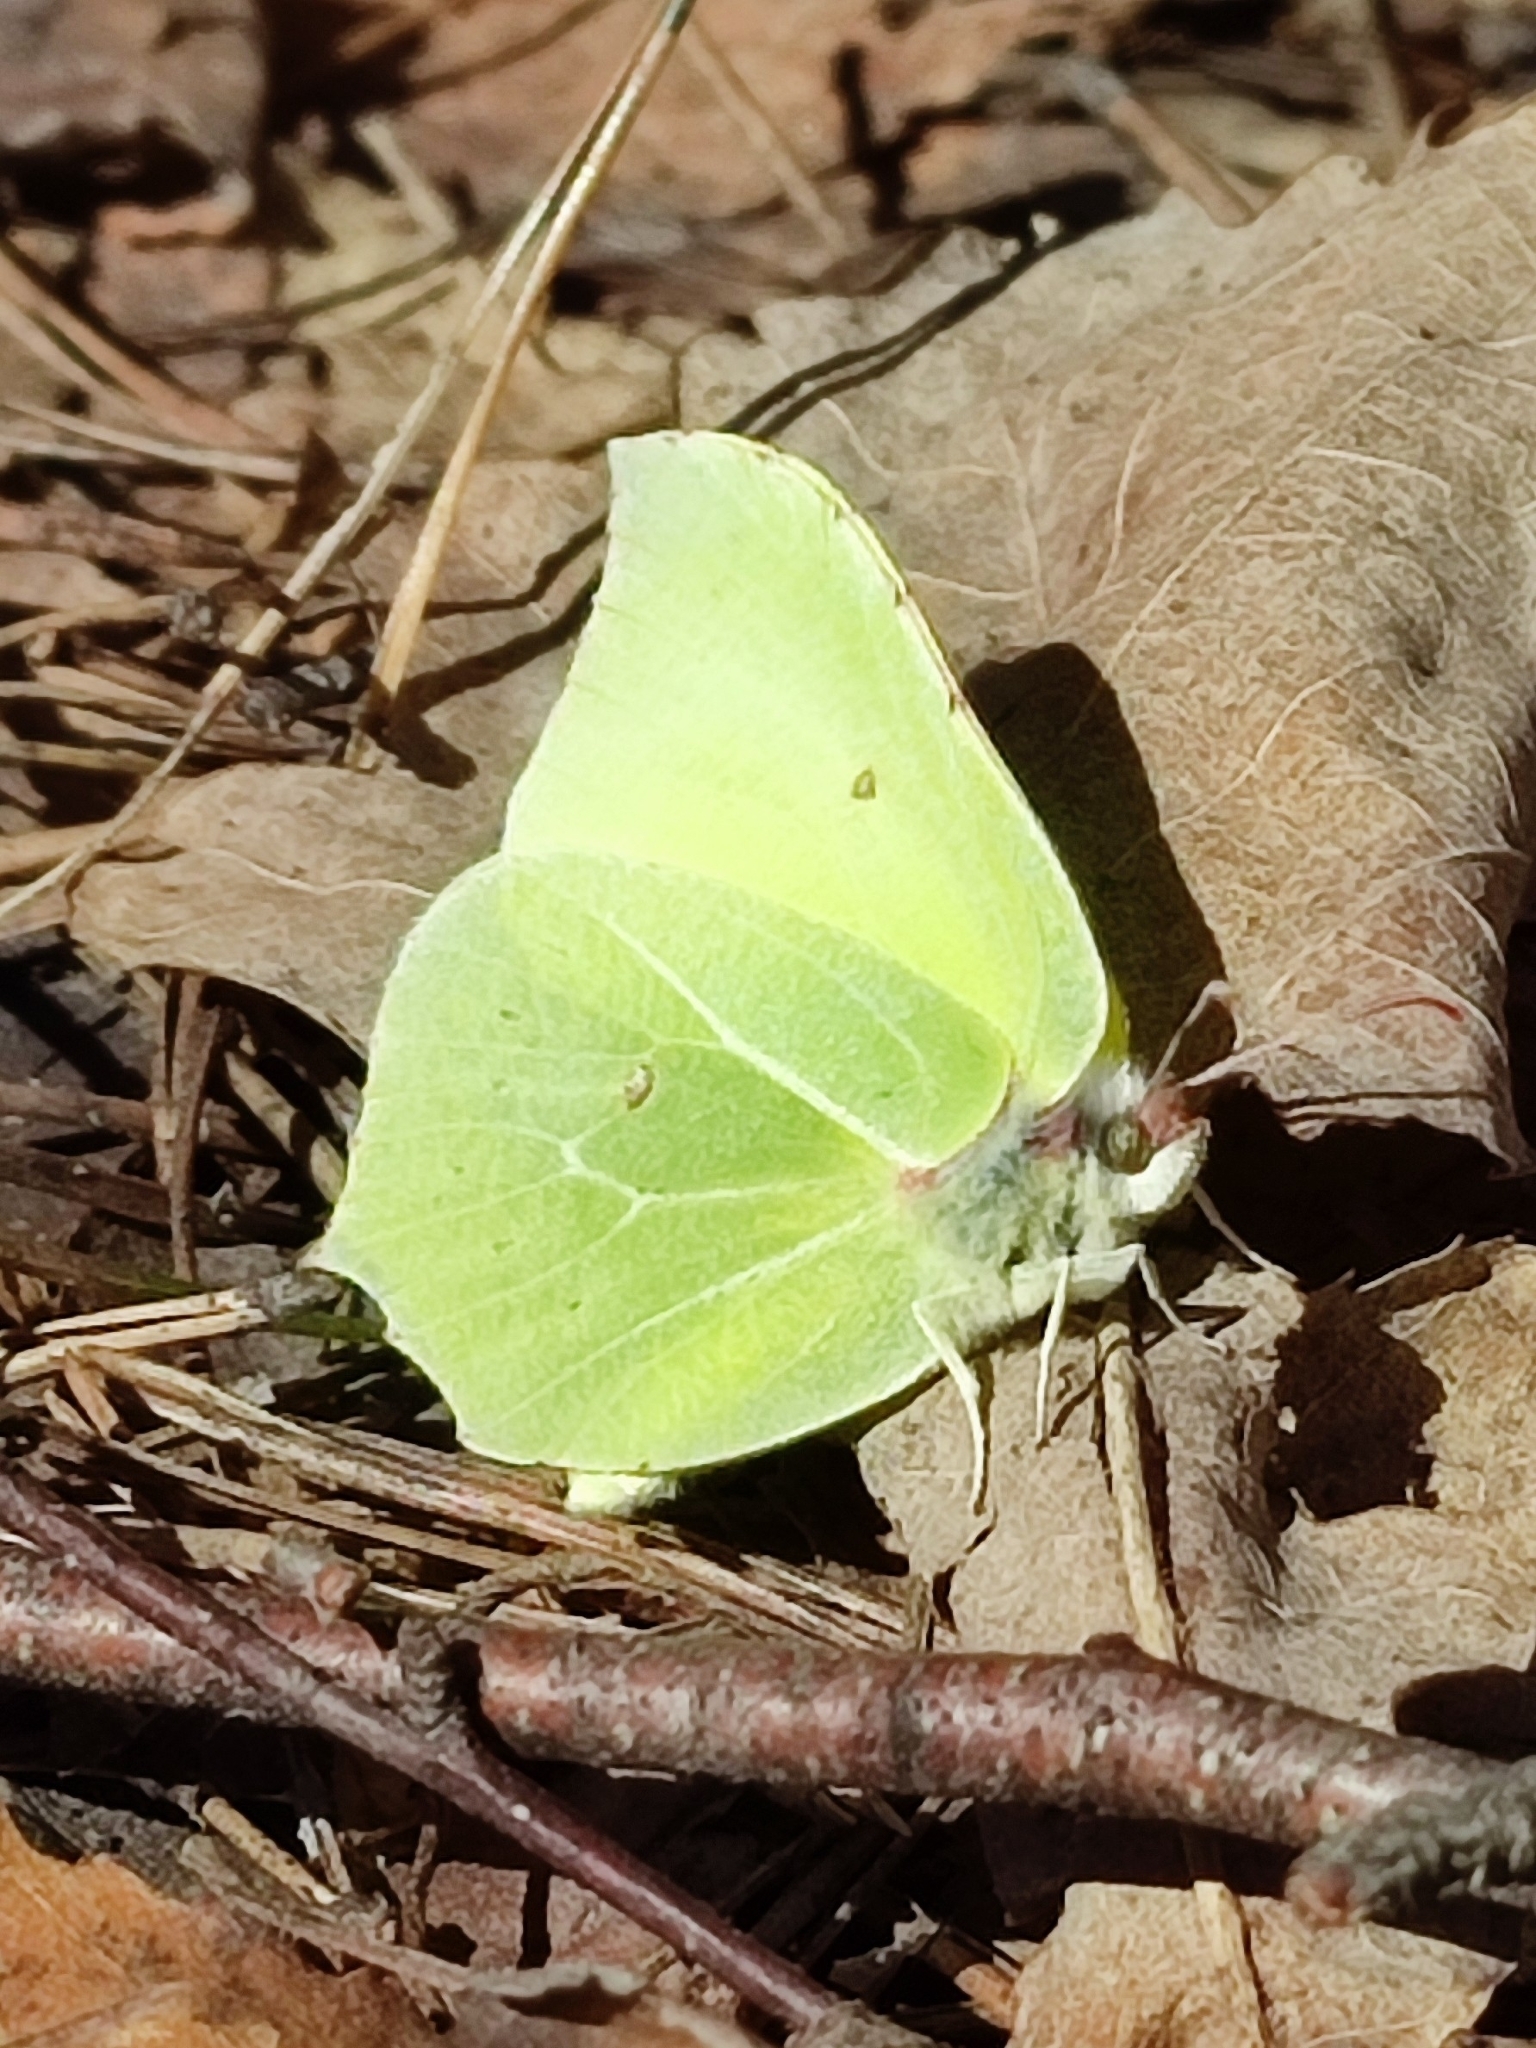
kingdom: Animalia
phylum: Arthropoda
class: Insecta
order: Lepidoptera
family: Pieridae
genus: Gonepteryx
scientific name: Gonepteryx rhamni
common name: Brimstone
